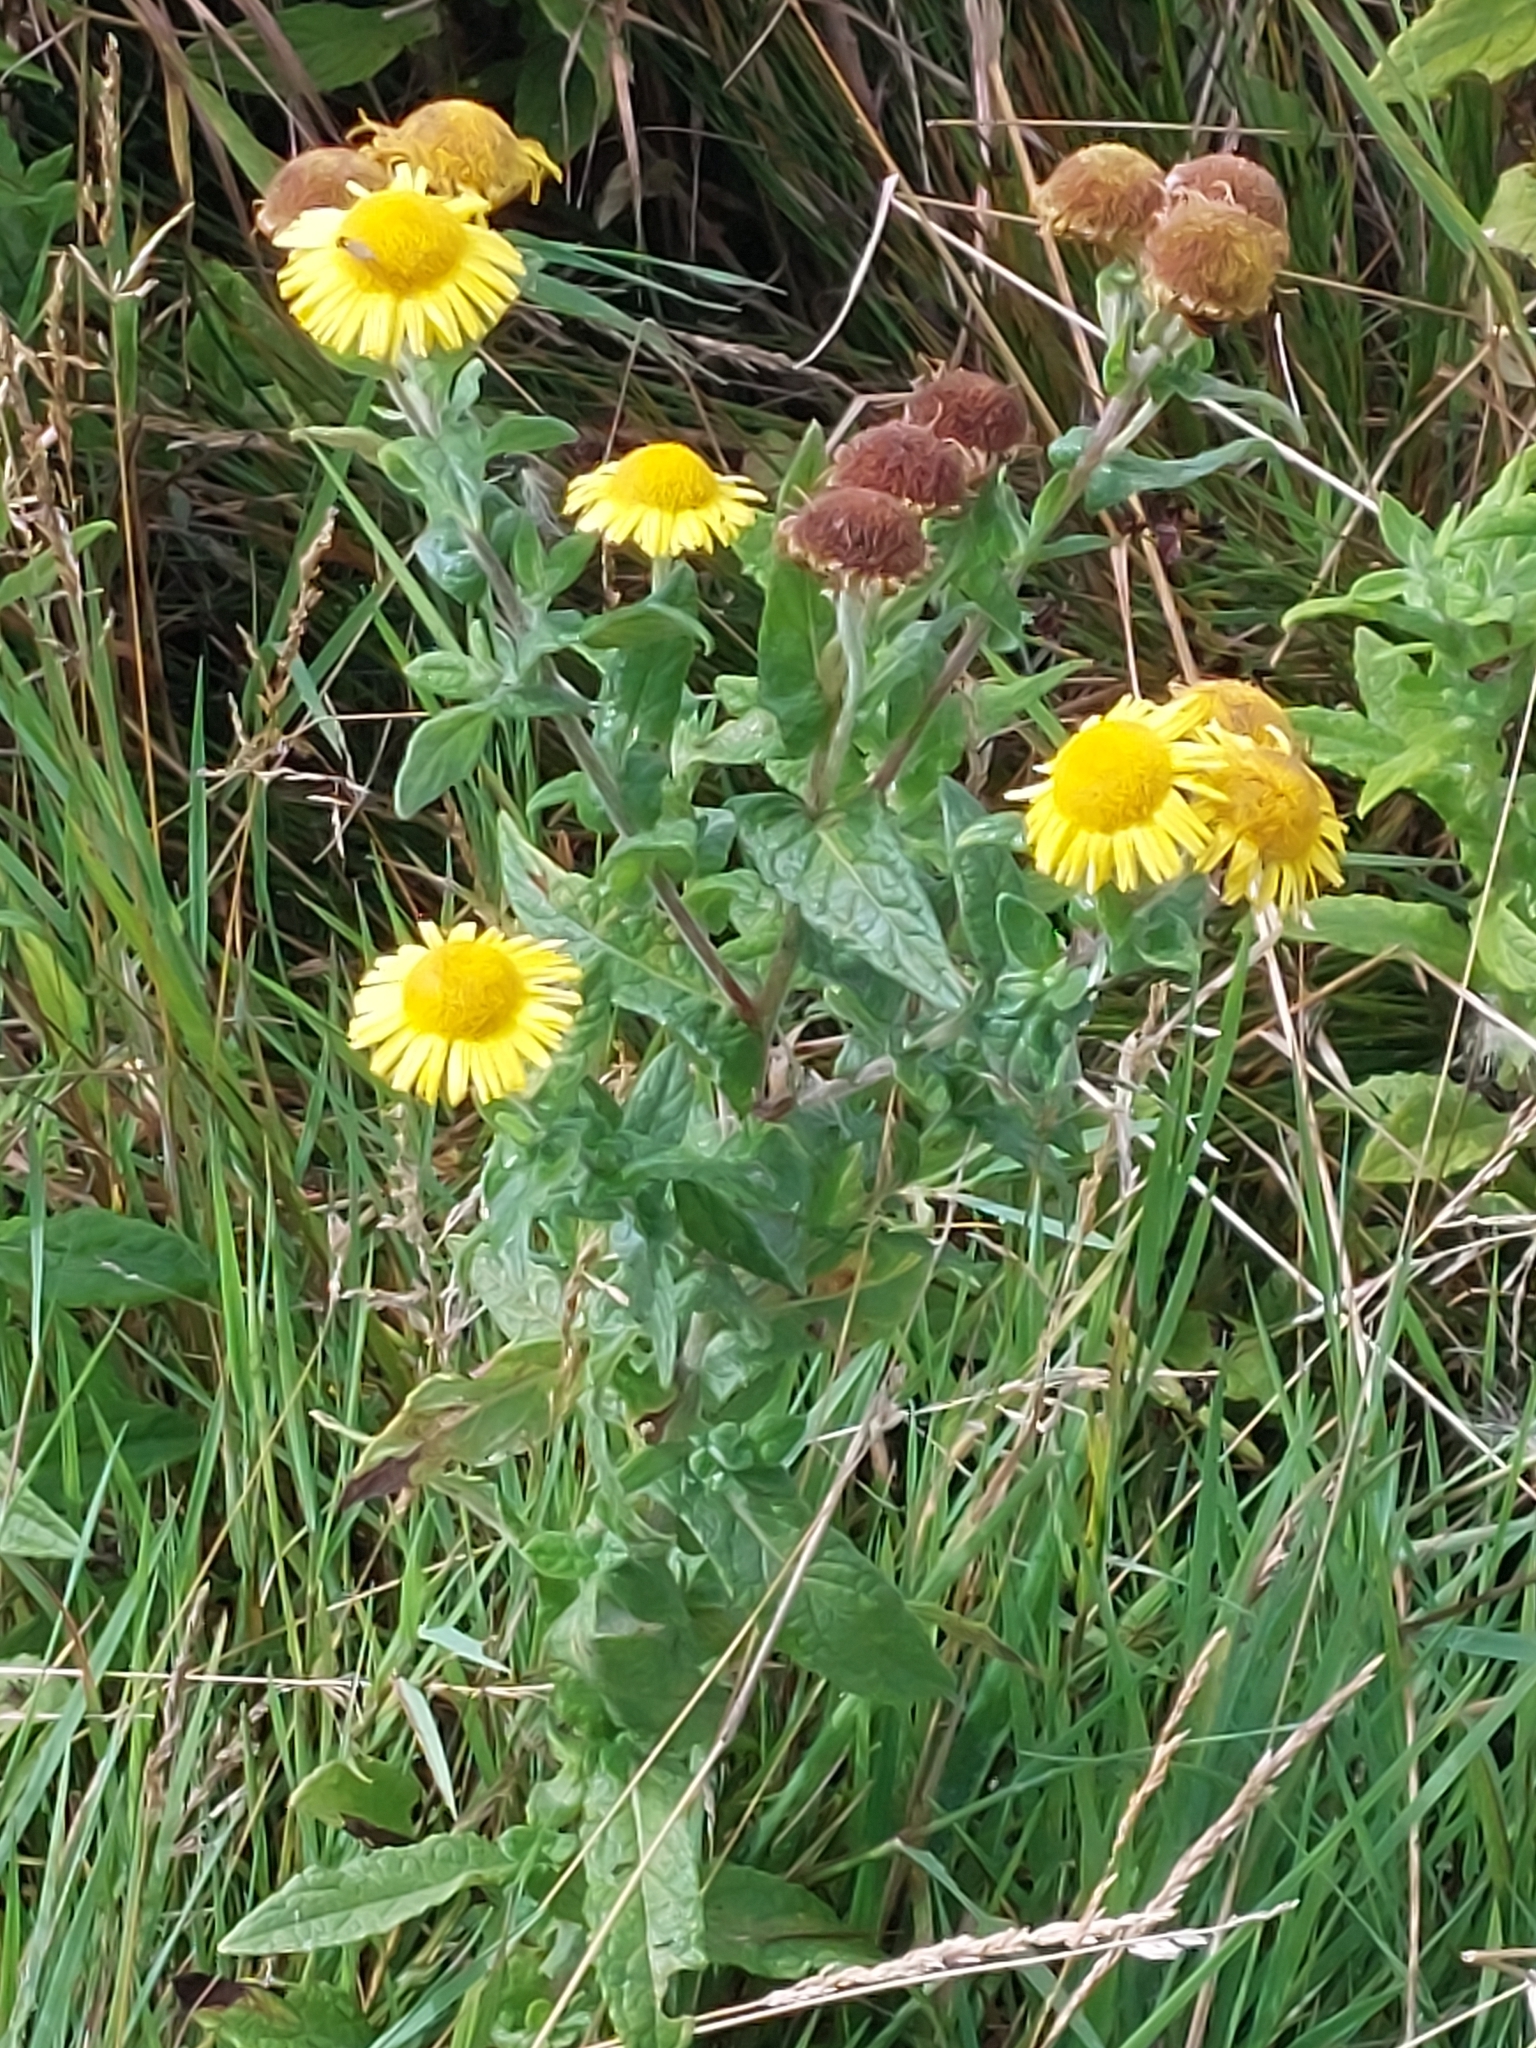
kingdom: Plantae
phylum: Tracheophyta
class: Magnoliopsida
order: Asterales
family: Asteraceae
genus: Pulicaria
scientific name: Pulicaria dysenterica
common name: Common fleabane
